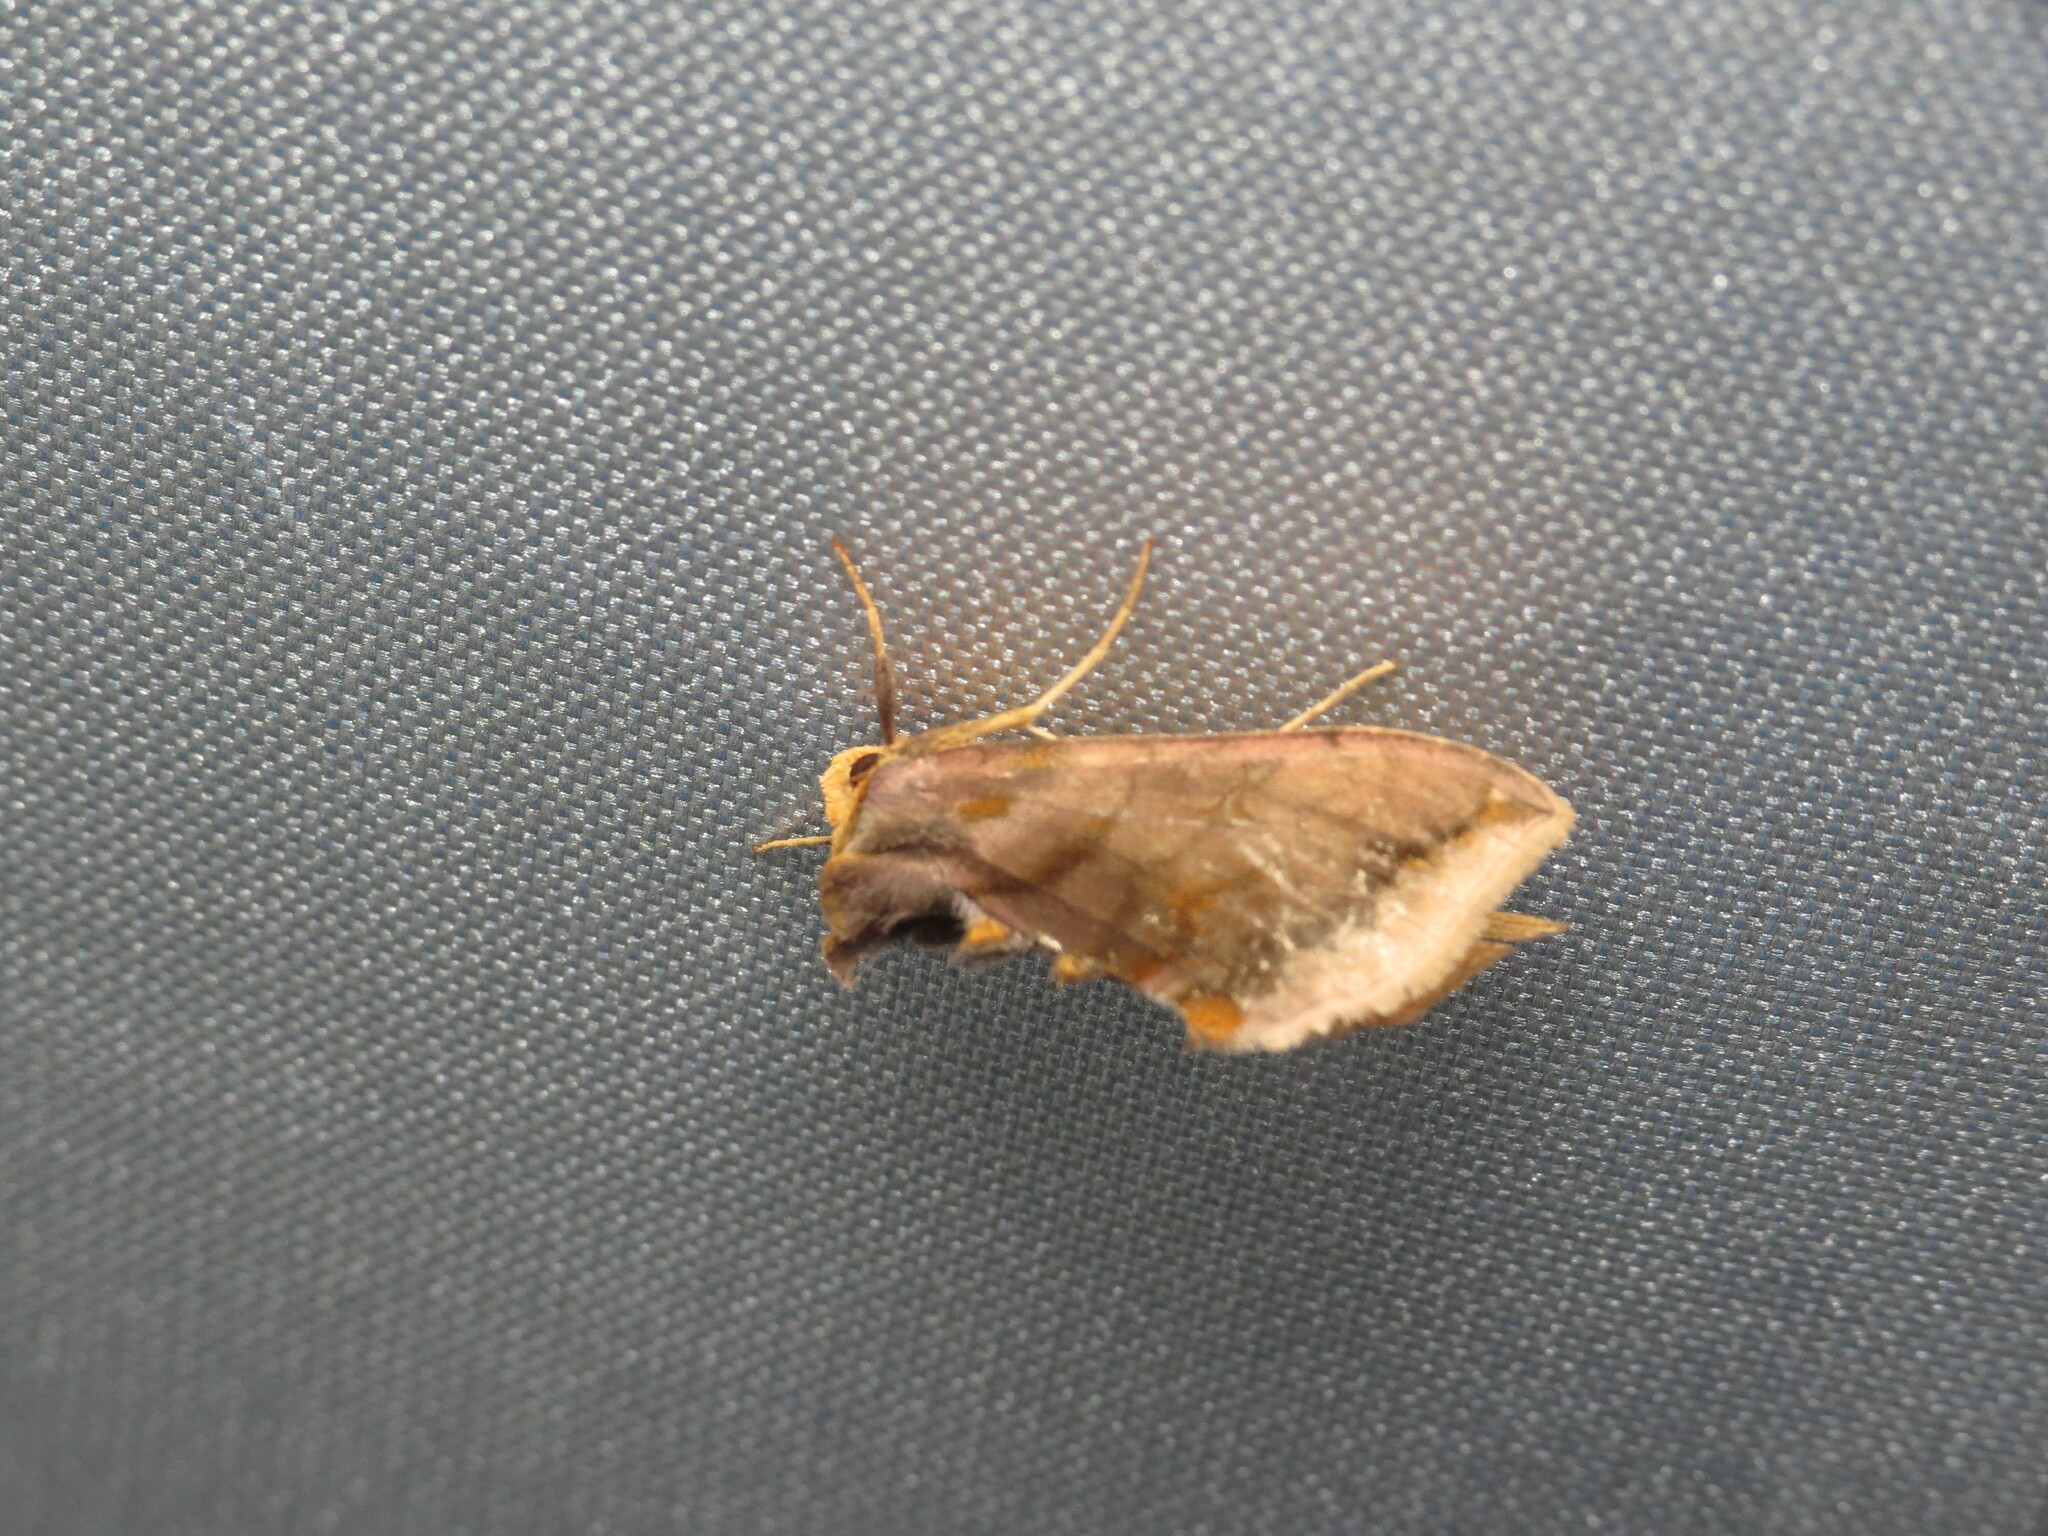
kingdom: Animalia
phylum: Arthropoda
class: Insecta
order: Lepidoptera
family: Noctuidae
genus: Allagrapha
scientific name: Allagrapha aerea
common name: Unspotted looper moth
